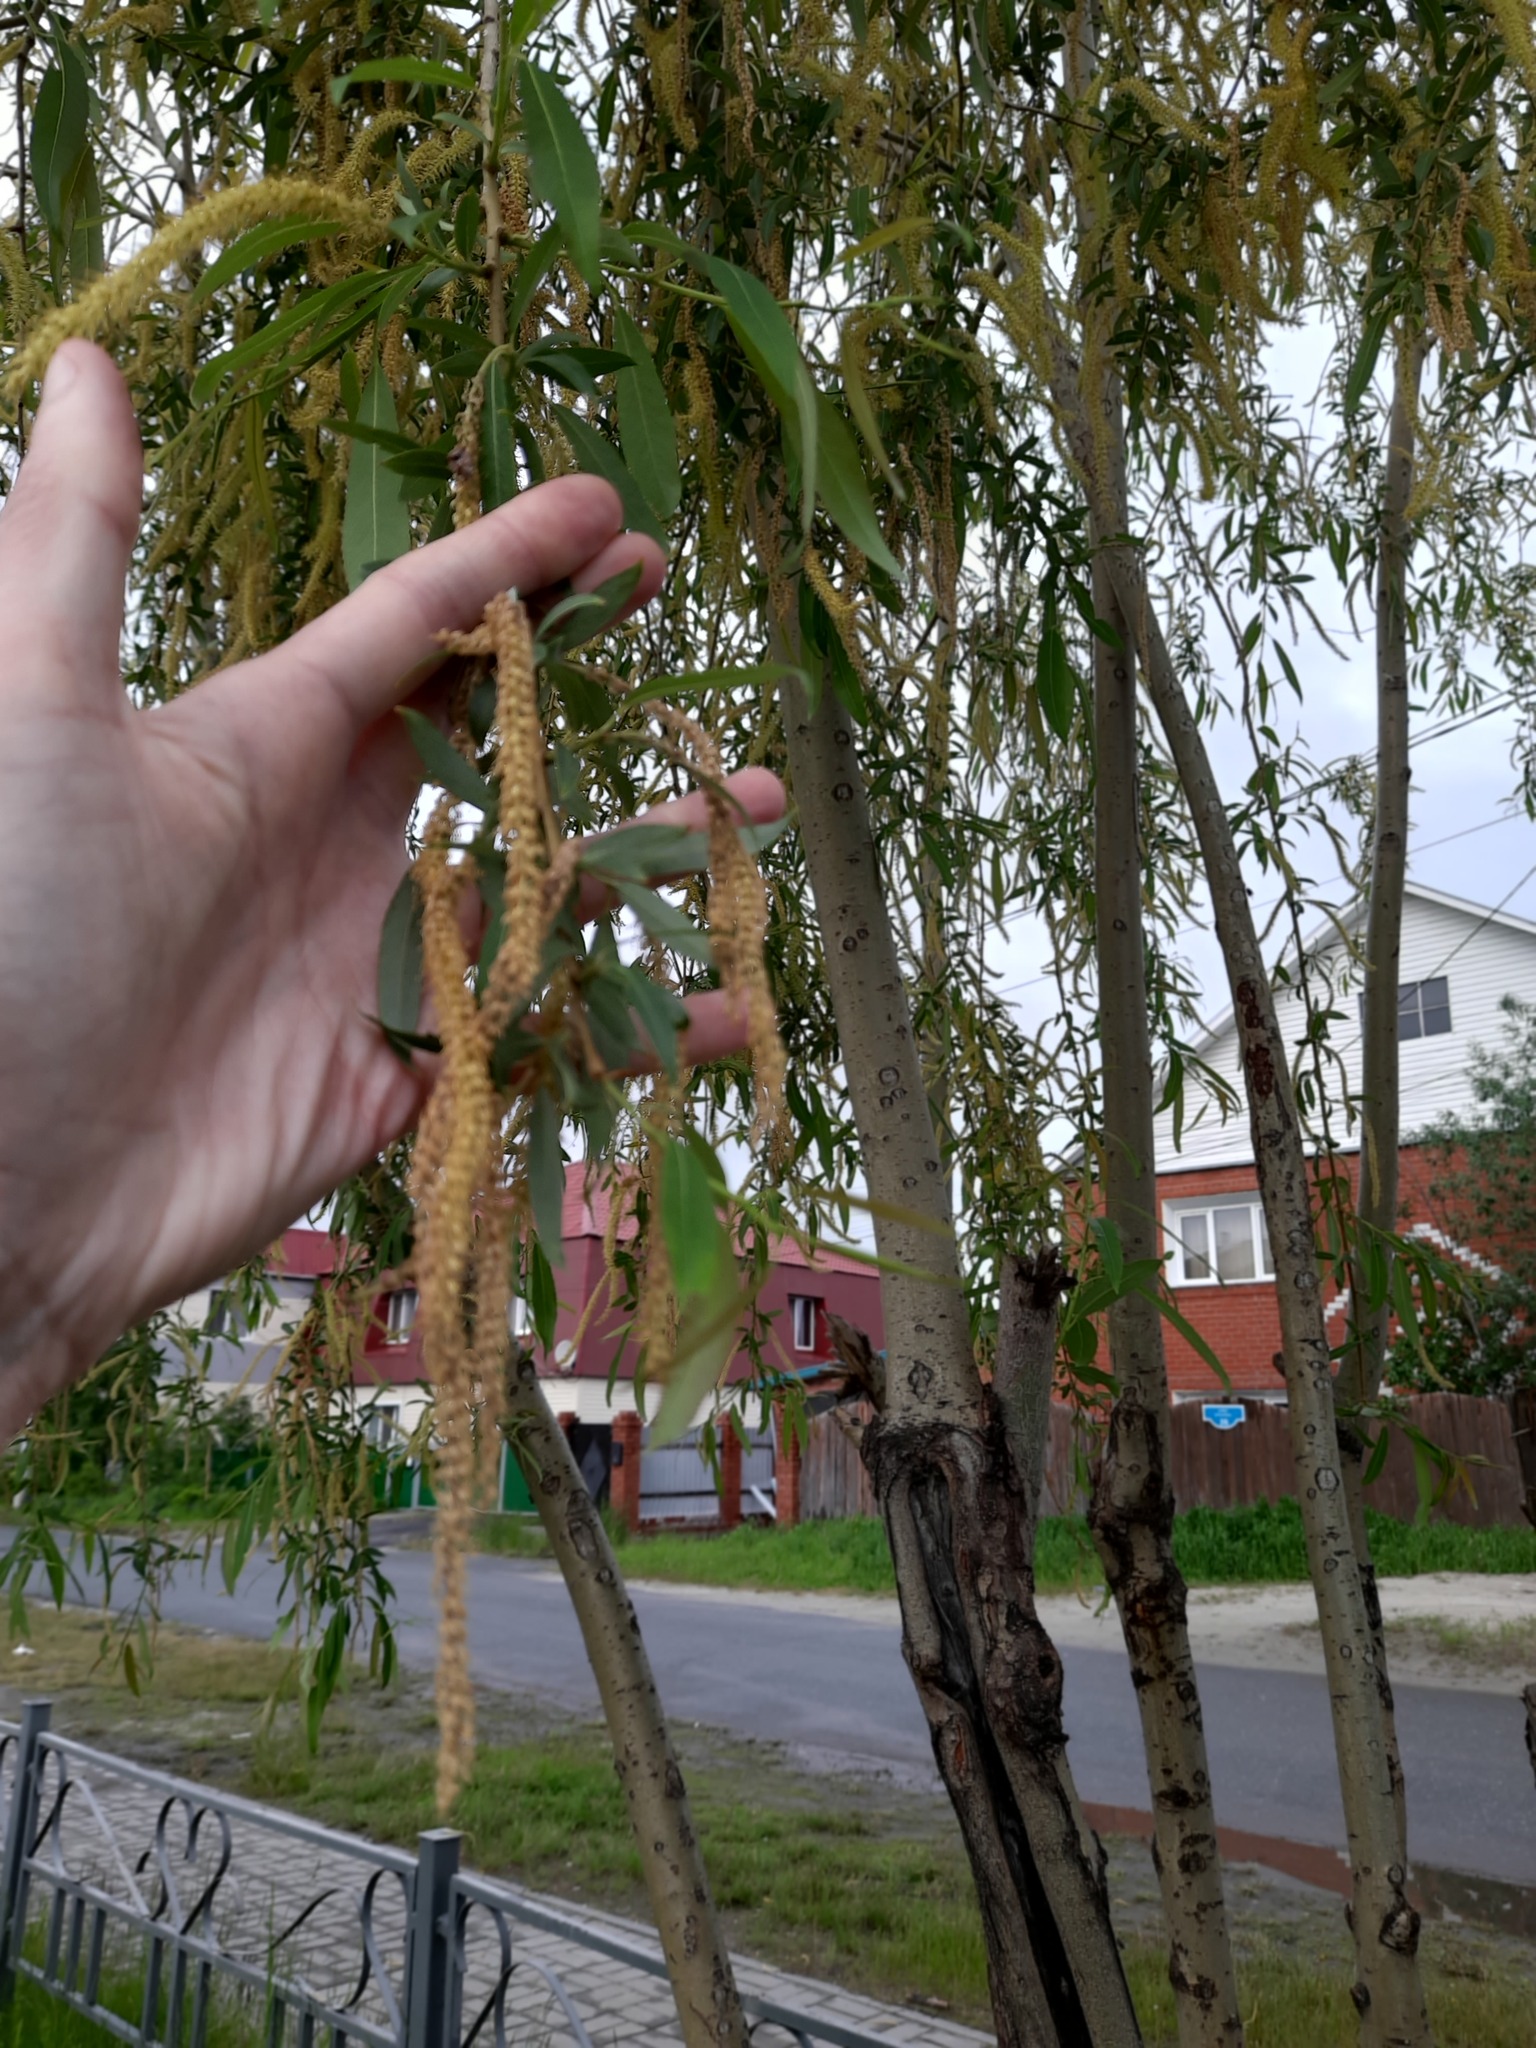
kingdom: Plantae
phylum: Tracheophyta
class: Magnoliopsida
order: Malpighiales
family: Salicaceae
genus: Salix
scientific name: Salix triandra
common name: Almond willow
